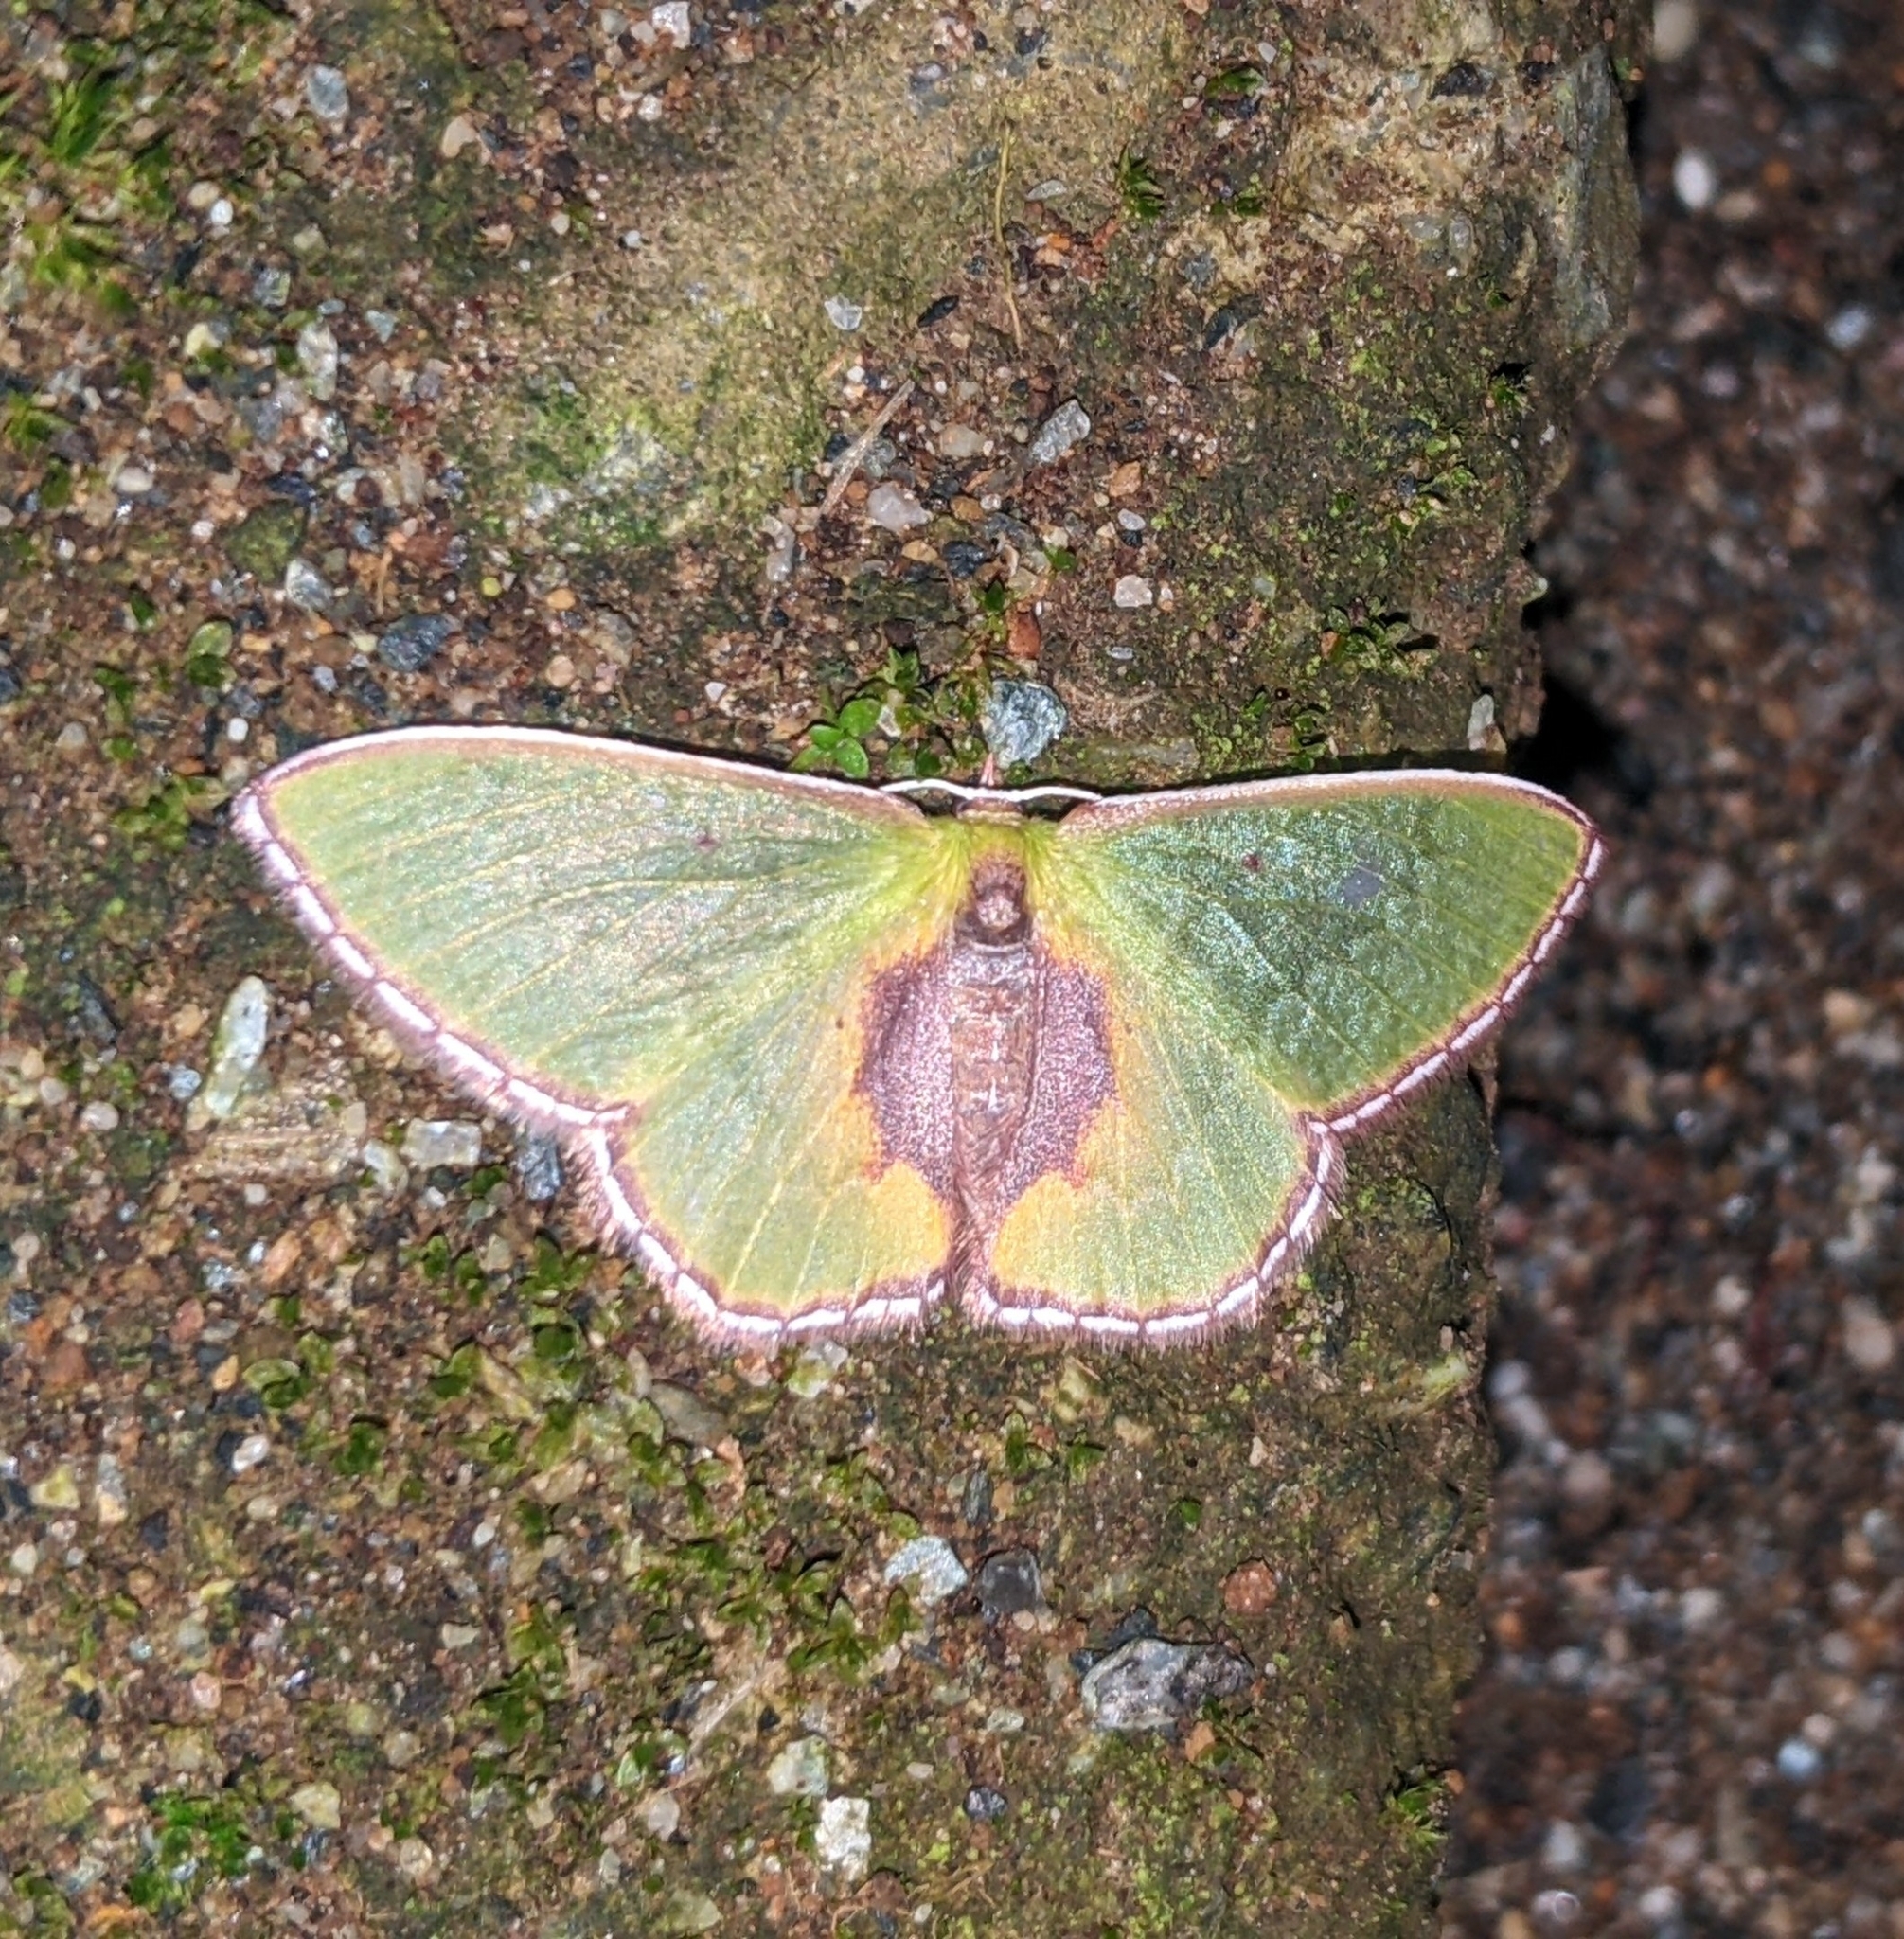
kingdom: Animalia
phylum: Arthropoda
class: Insecta
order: Lepidoptera
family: Geometridae
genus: Synchlora
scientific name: Synchlora astraeoides
